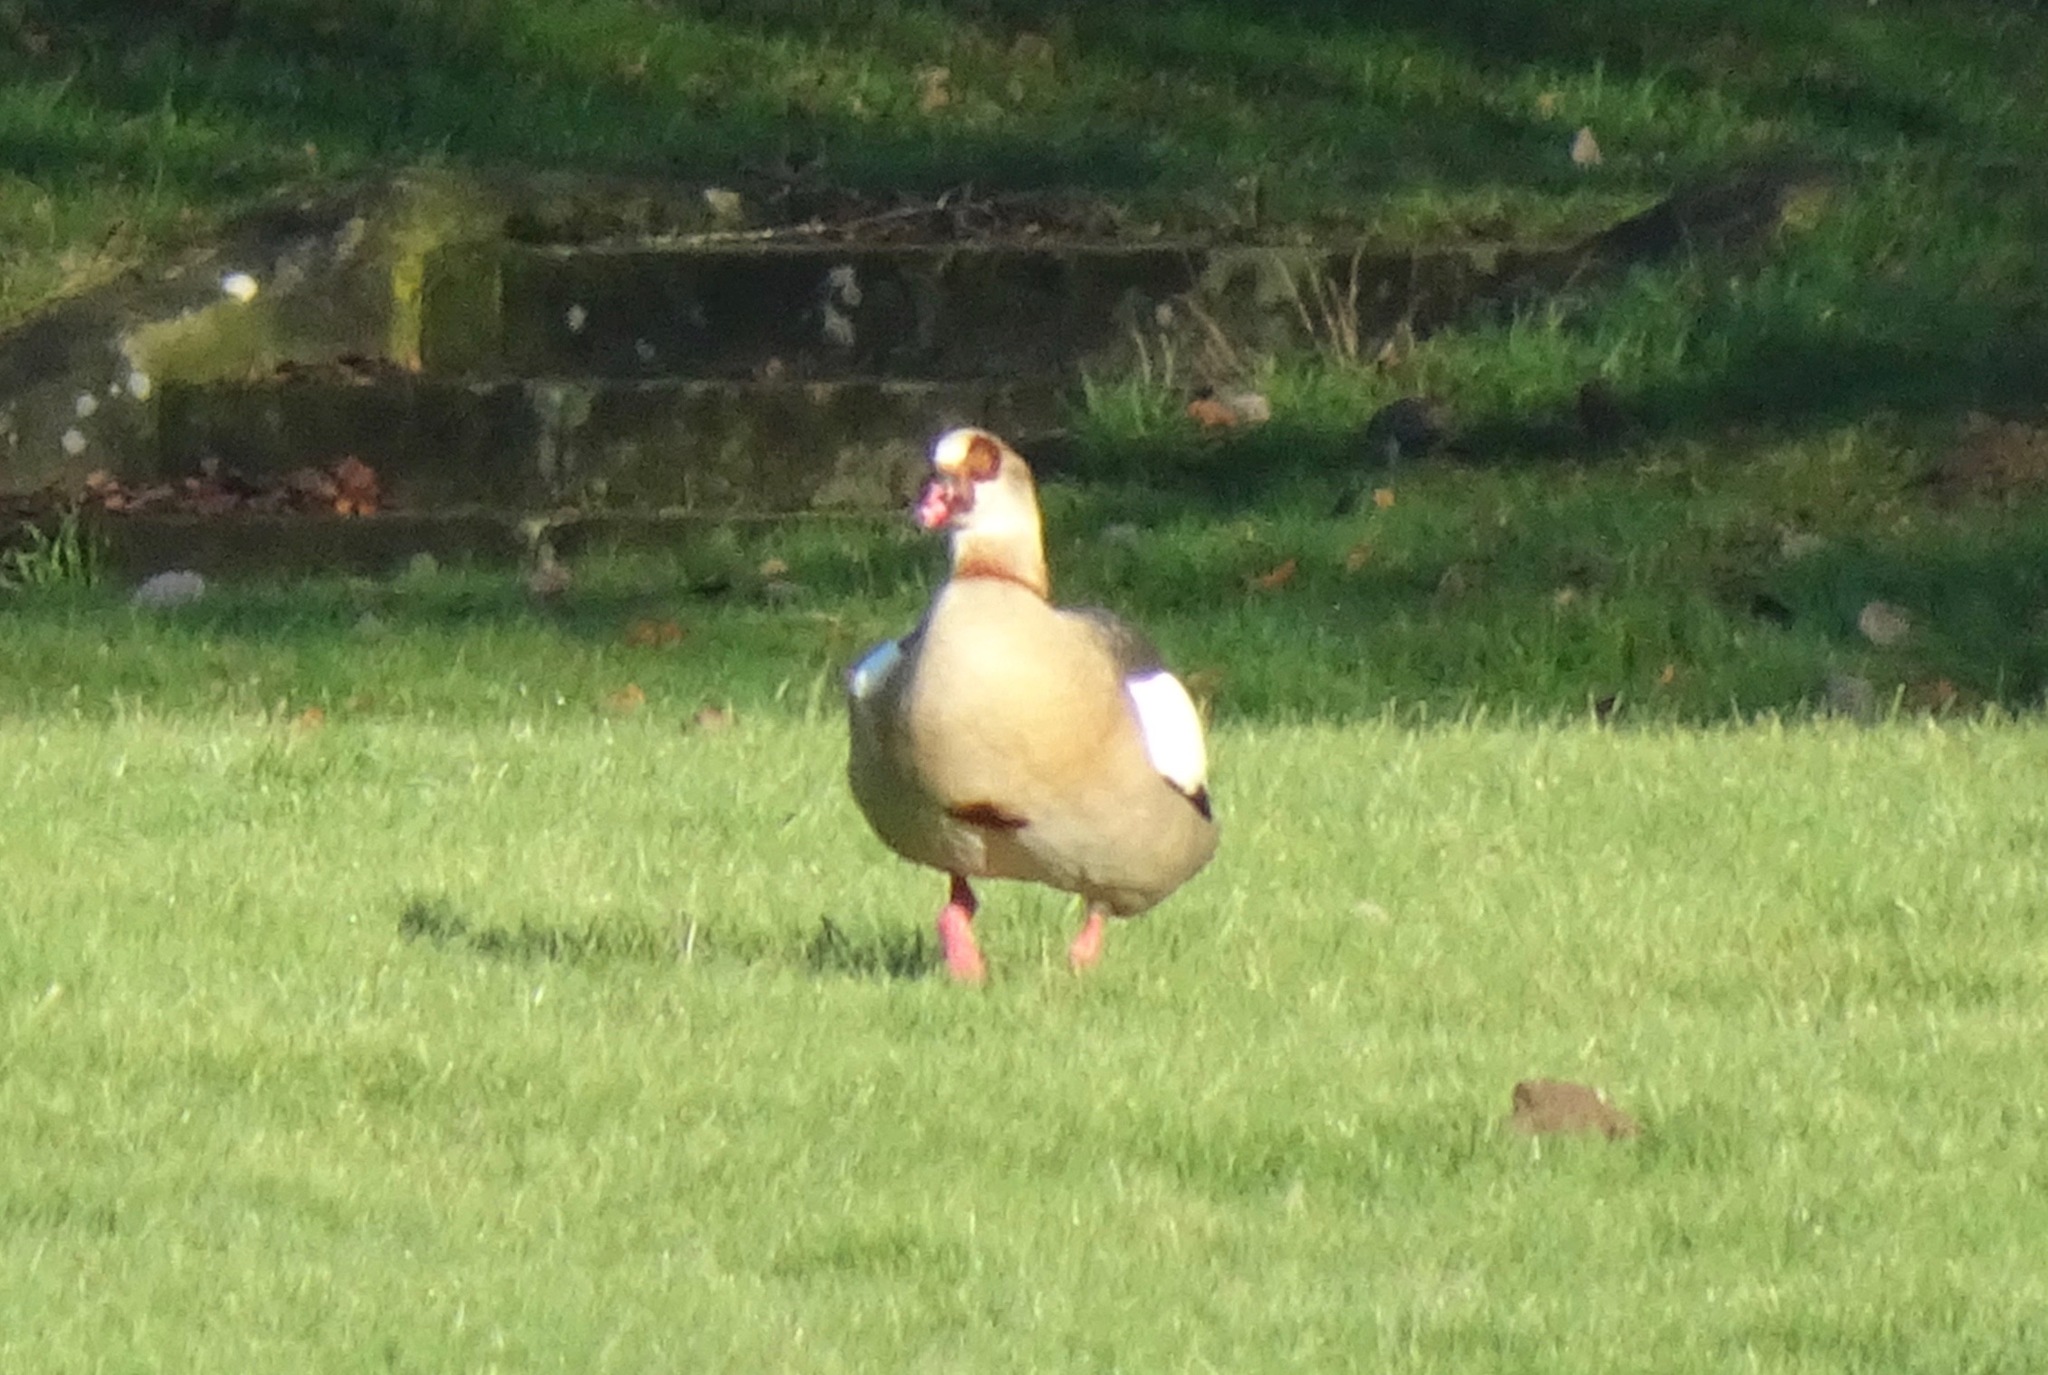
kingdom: Animalia
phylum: Chordata
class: Aves
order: Anseriformes
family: Anatidae
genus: Alopochen
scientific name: Alopochen aegyptiaca
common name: Egyptian goose
